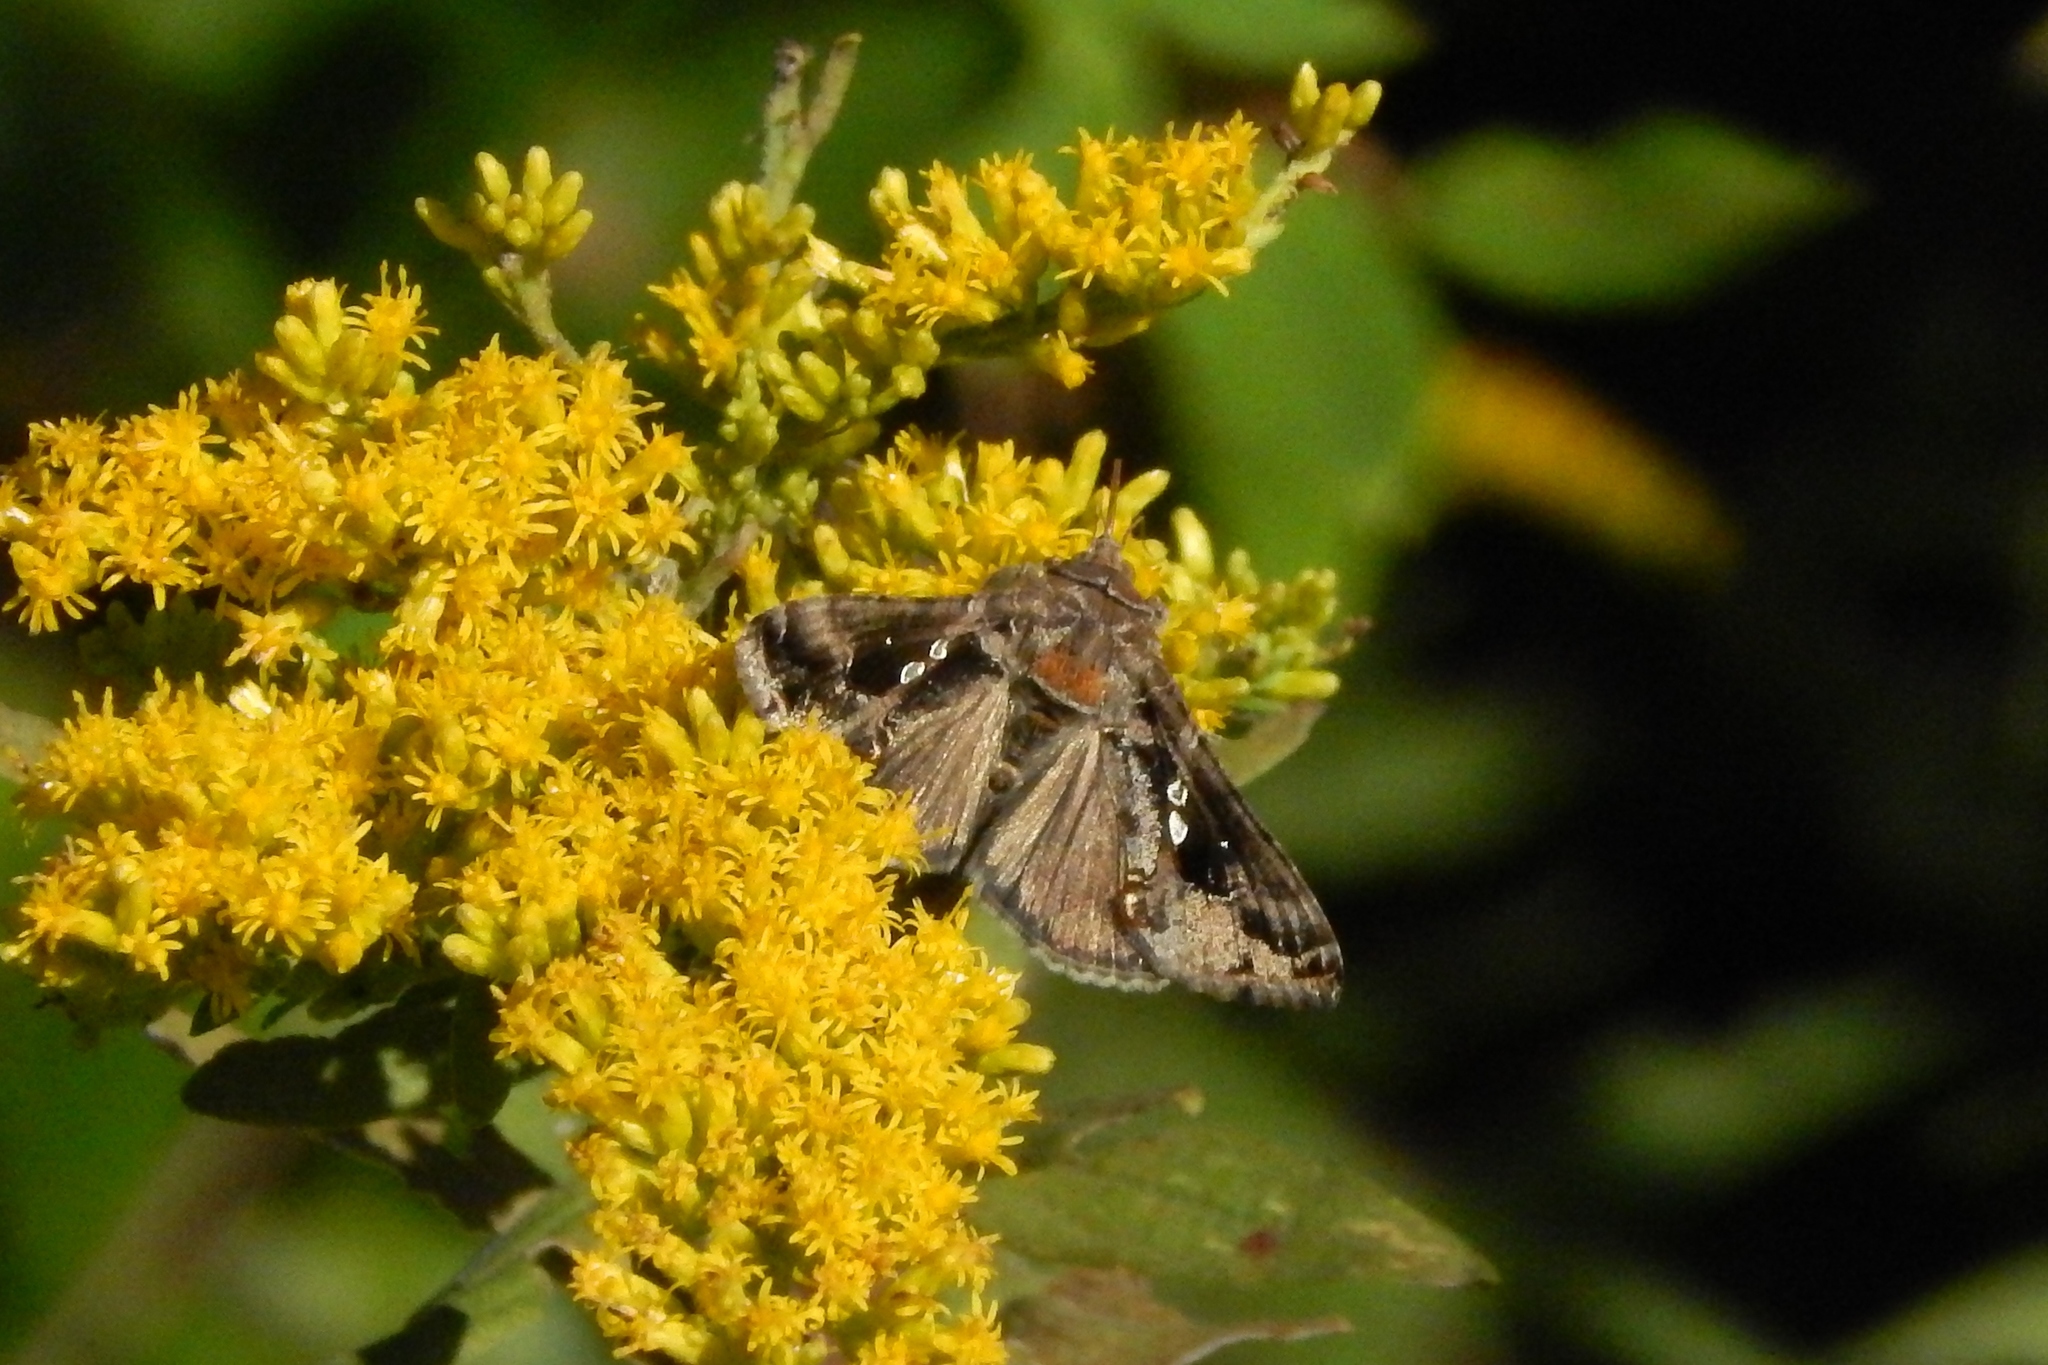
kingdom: Animalia
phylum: Arthropoda
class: Insecta
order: Lepidoptera
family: Noctuidae
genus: Chrysodeixis
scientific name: Chrysodeixis includens
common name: Cutworm moth
